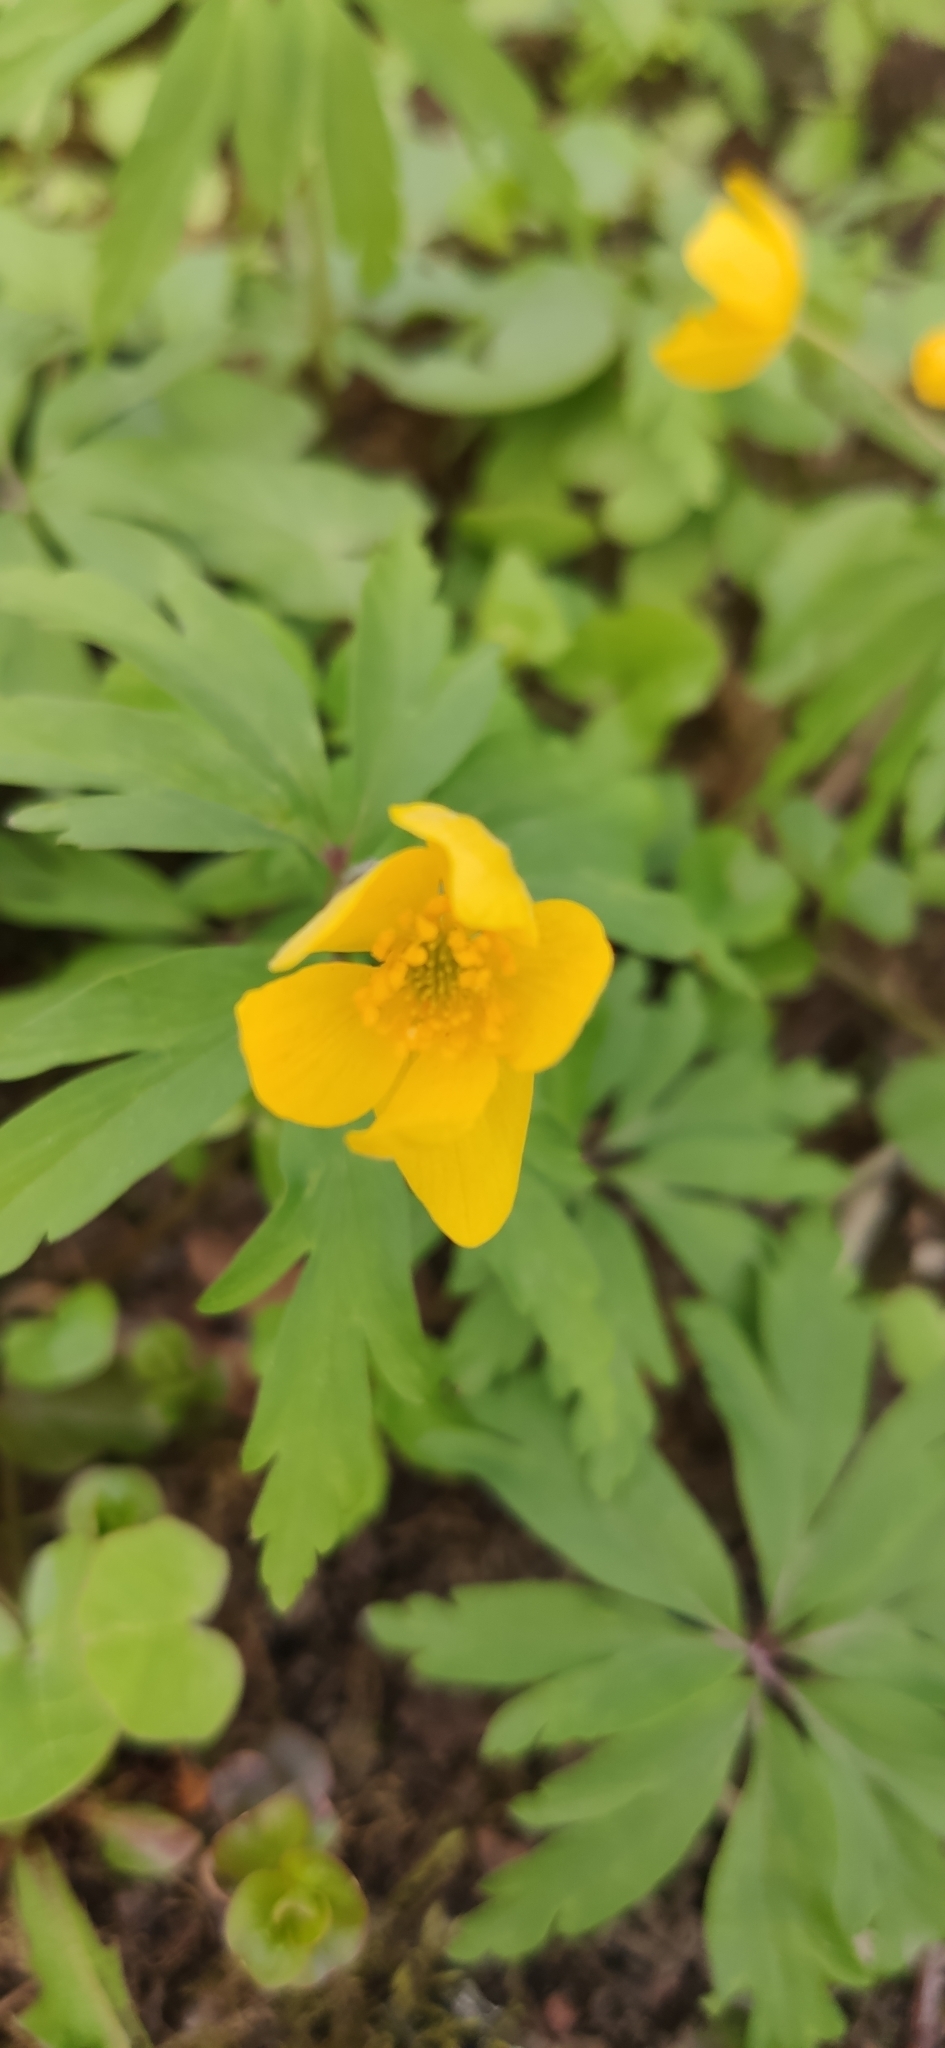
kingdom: Plantae
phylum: Tracheophyta
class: Magnoliopsida
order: Ranunculales
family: Ranunculaceae
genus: Anemone
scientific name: Anemone ranunculoides
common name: Yellow anemone
